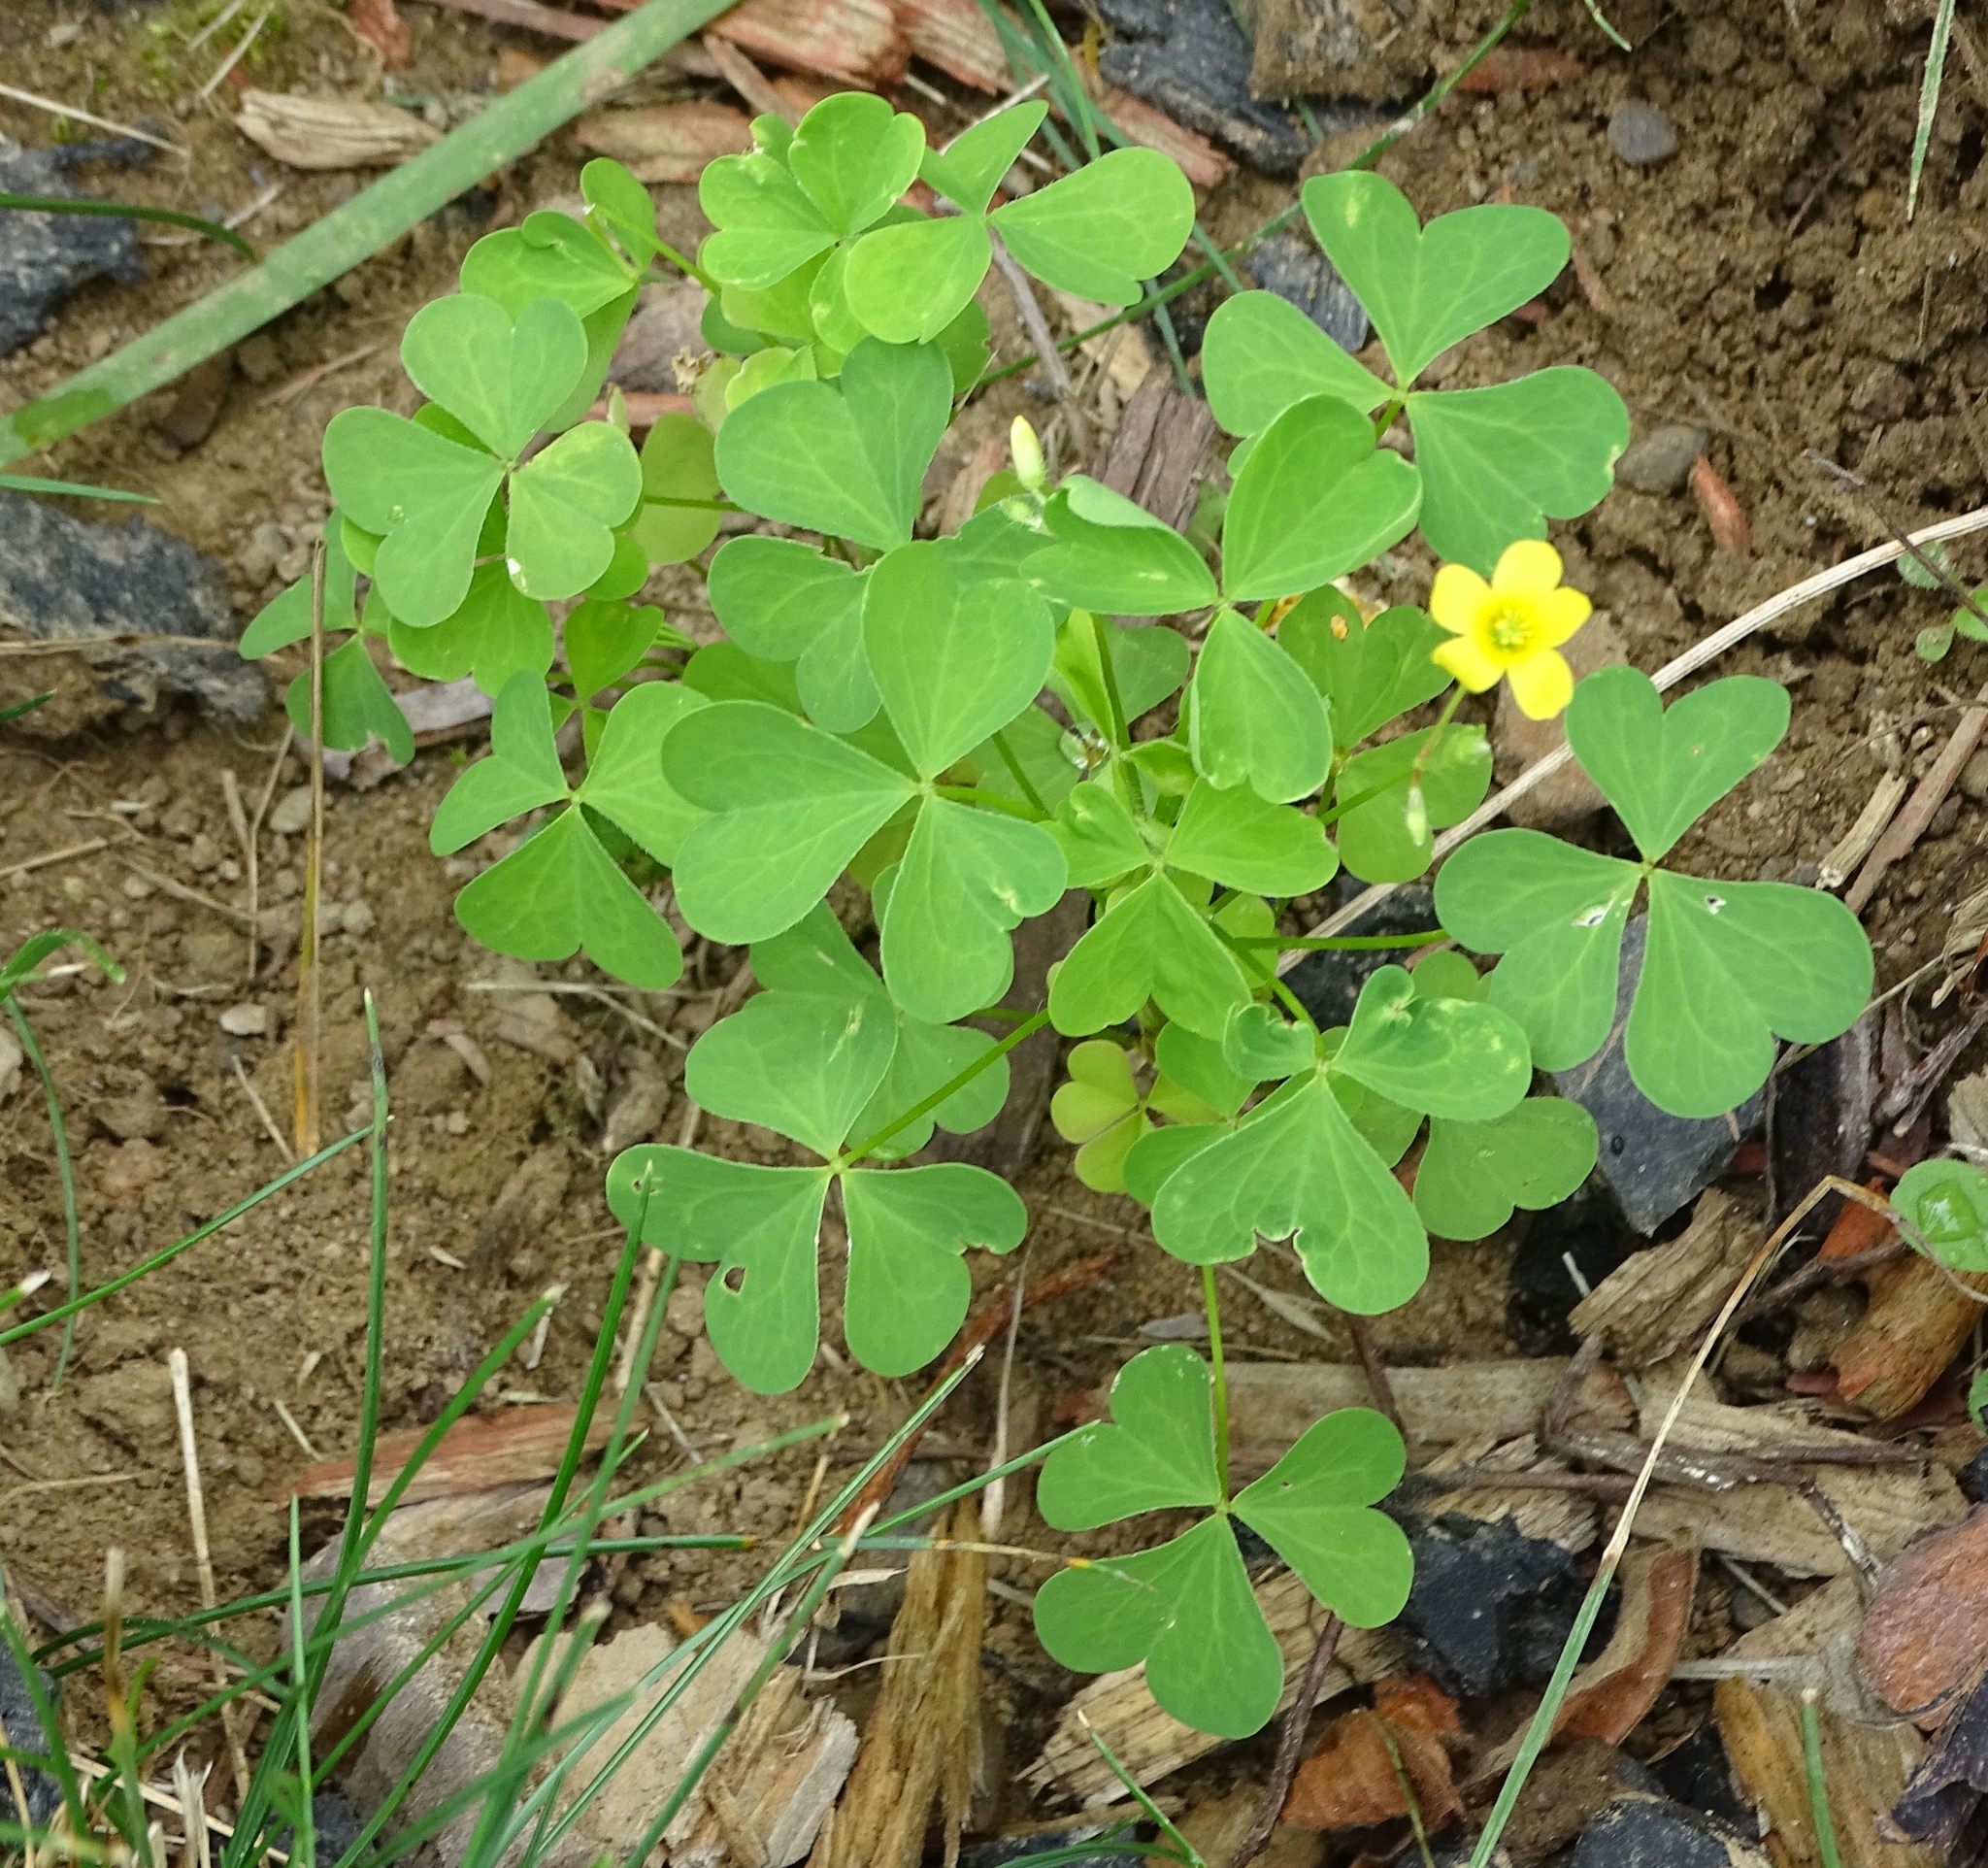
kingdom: Plantae
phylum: Tracheophyta
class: Magnoliopsida
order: Oxalidales
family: Oxalidaceae
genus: Oxalis
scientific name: Oxalis stricta
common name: Upright yellow-sorrel
